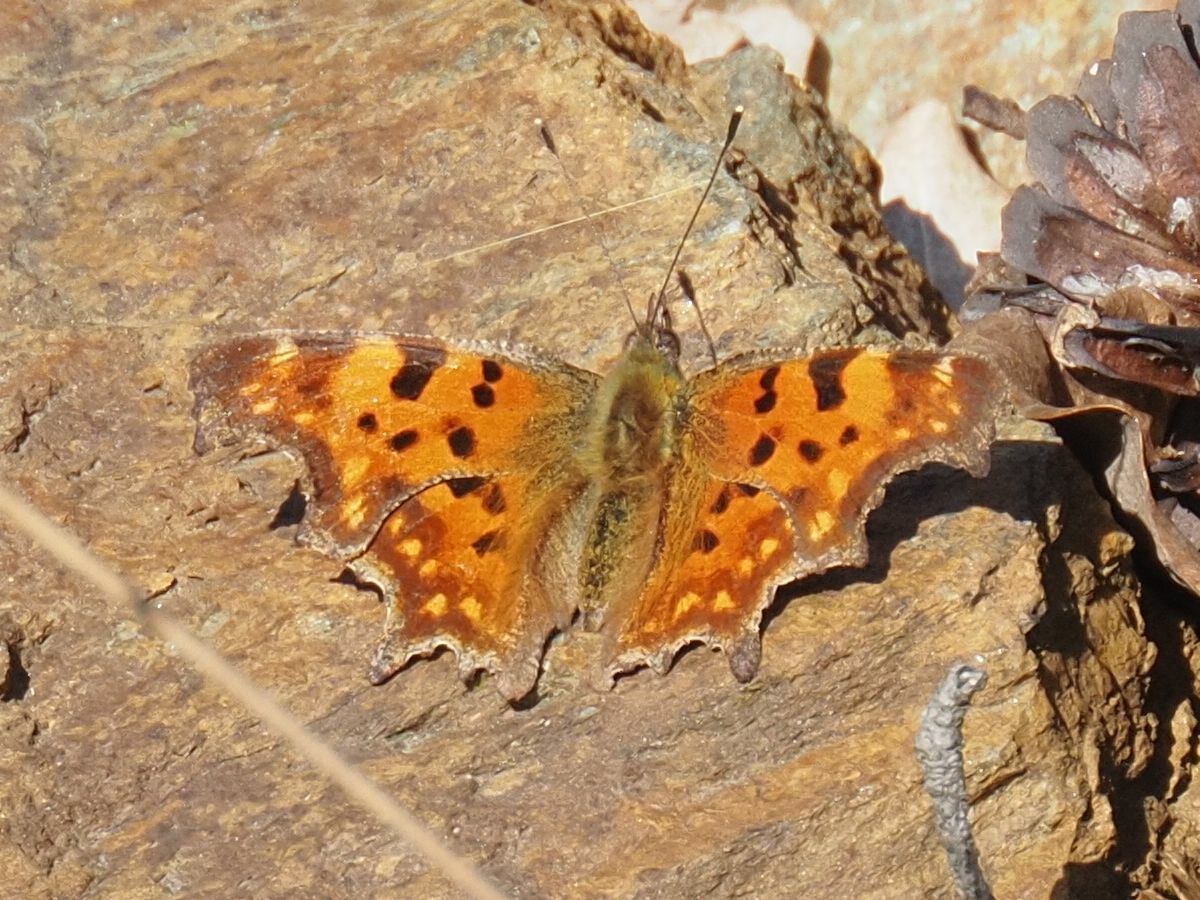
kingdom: Animalia
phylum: Arthropoda
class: Insecta
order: Lepidoptera
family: Nymphalidae
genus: Polygonia
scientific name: Polygonia c-album
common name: Comma
